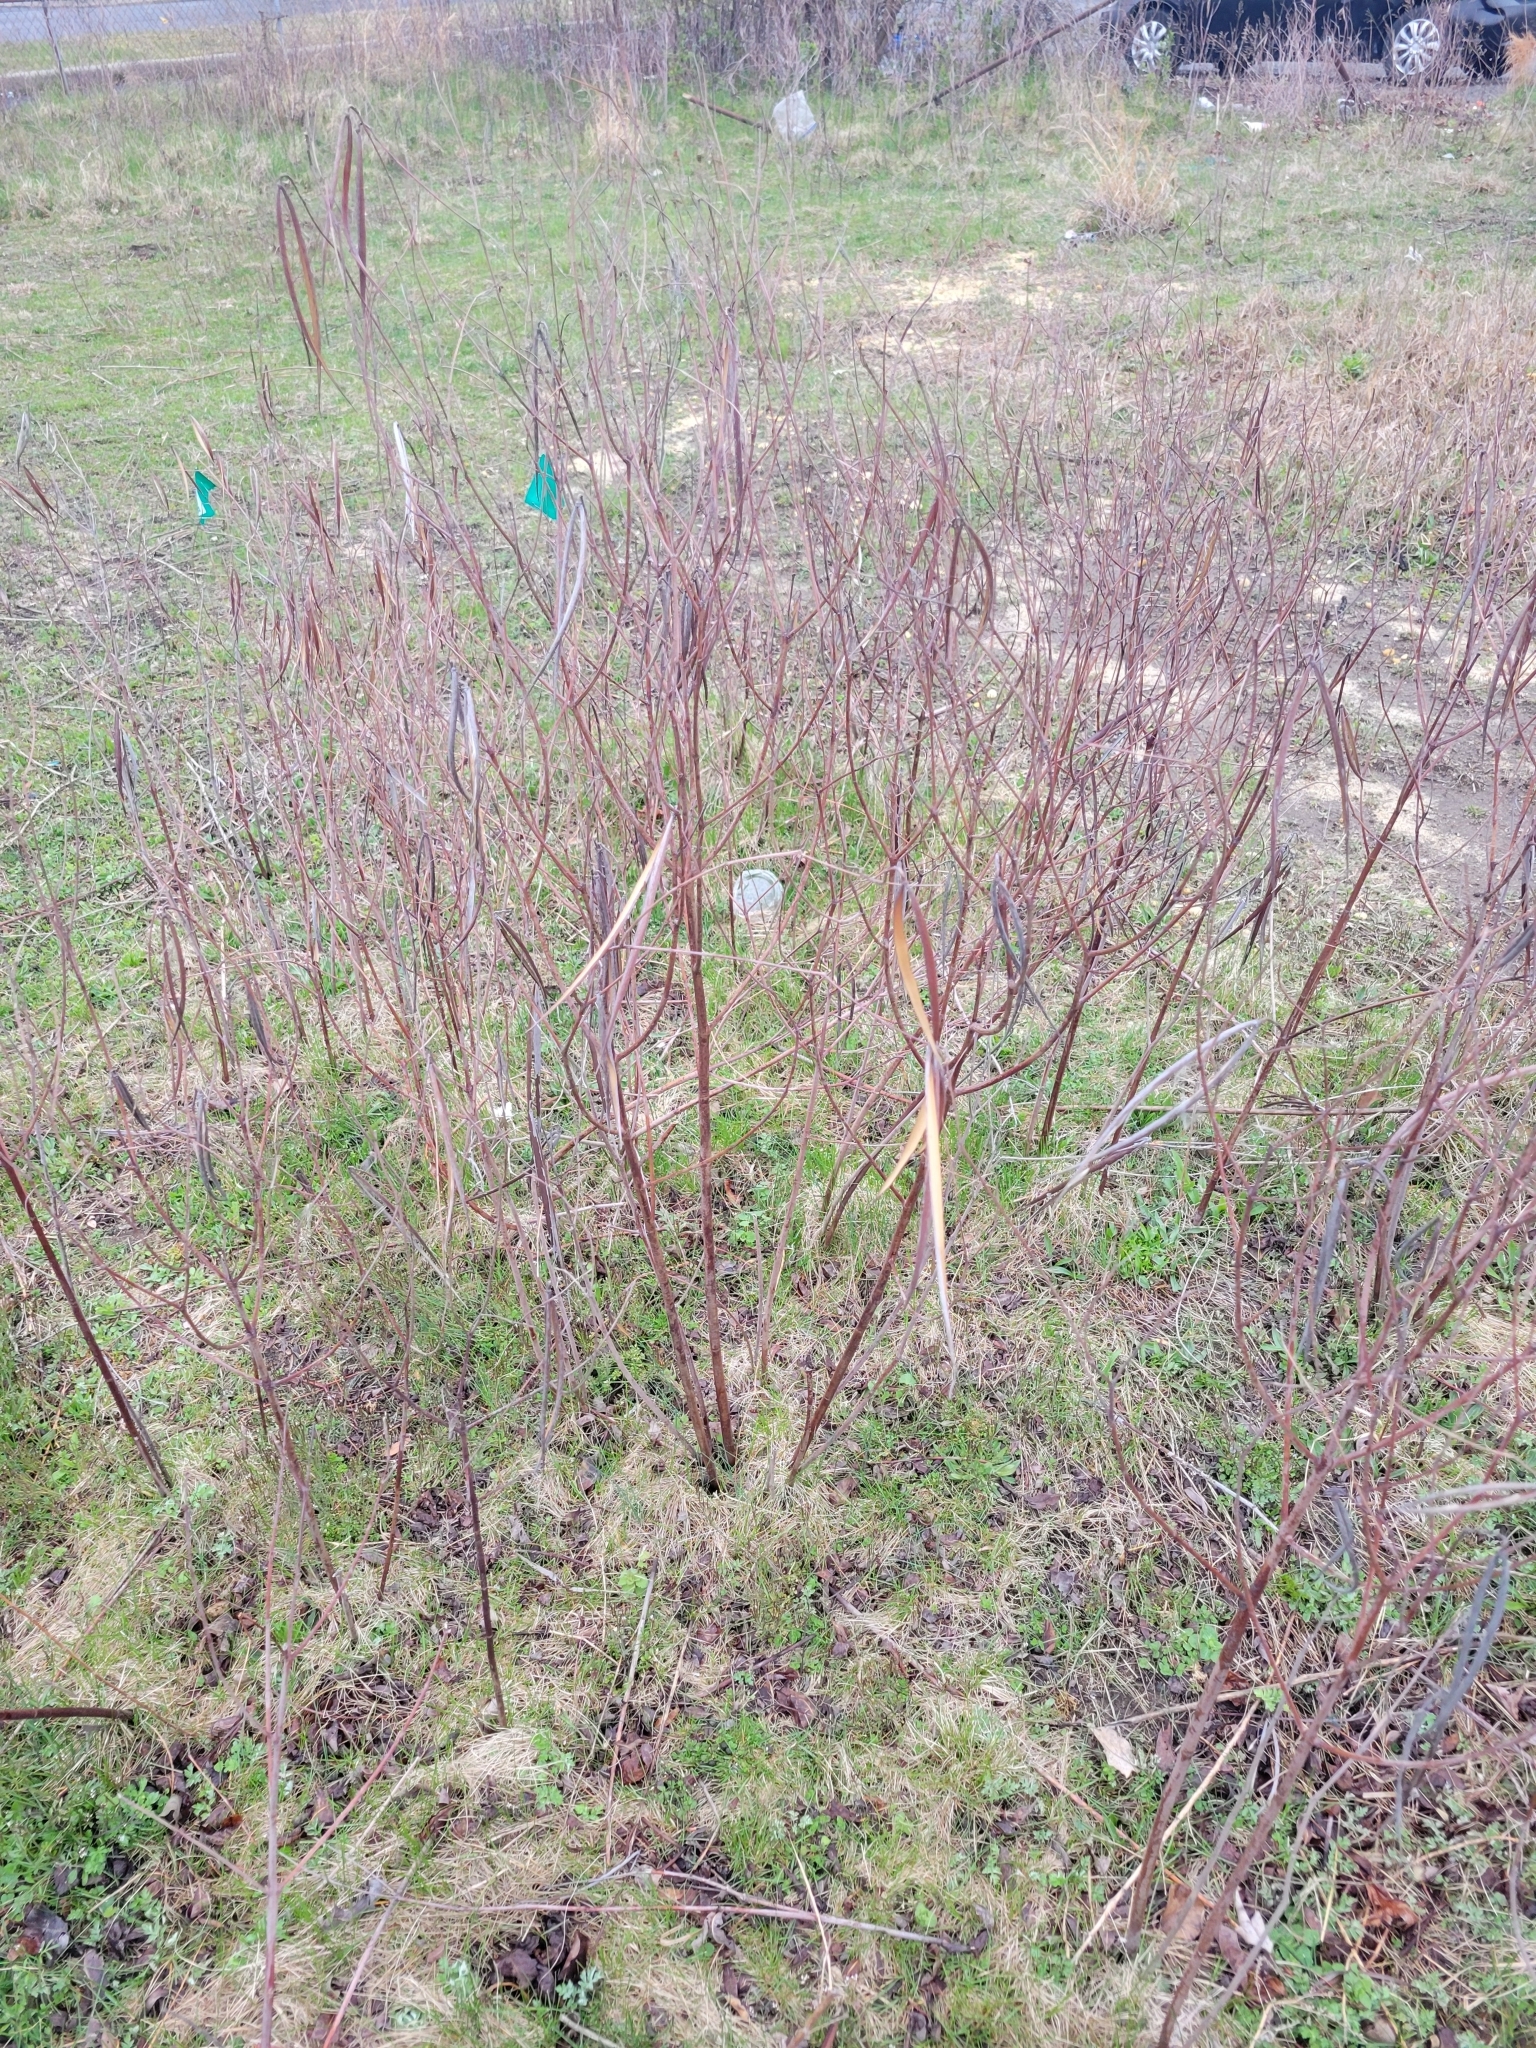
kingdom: Plantae
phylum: Tracheophyta
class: Magnoliopsida
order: Gentianales
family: Apocynaceae
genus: Apocynum
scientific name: Apocynum cannabinum
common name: Hemp dogbane
